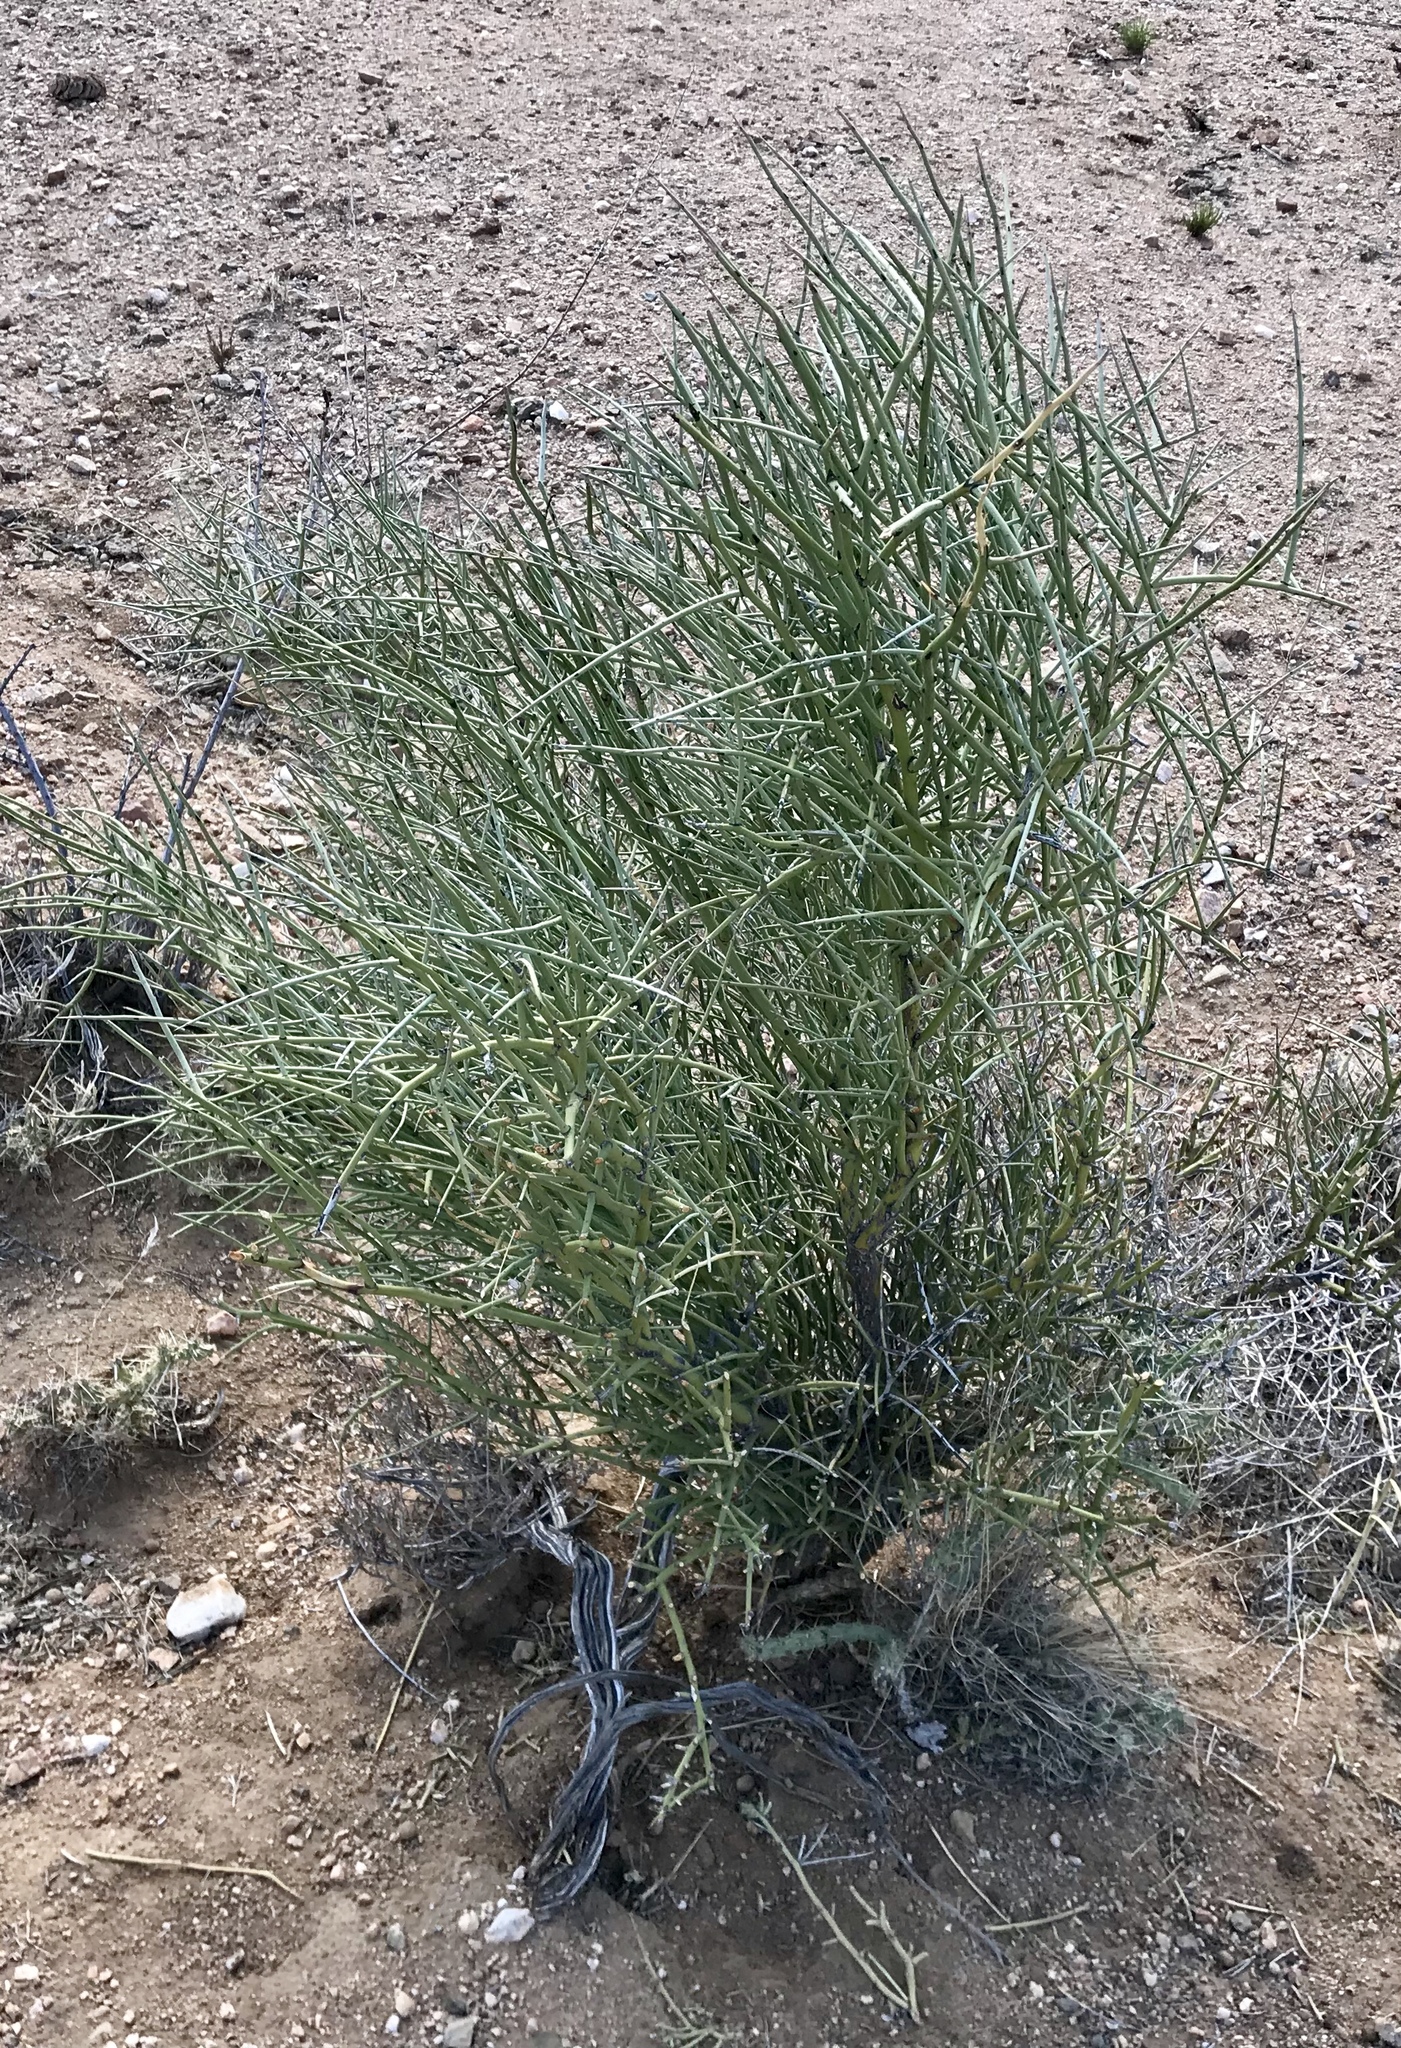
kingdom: Plantae
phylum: Tracheophyta
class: Magnoliopsida
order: Celastrales
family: Celastraceae
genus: Canotia
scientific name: Canotia holacantha
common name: Crucifixion thorns
